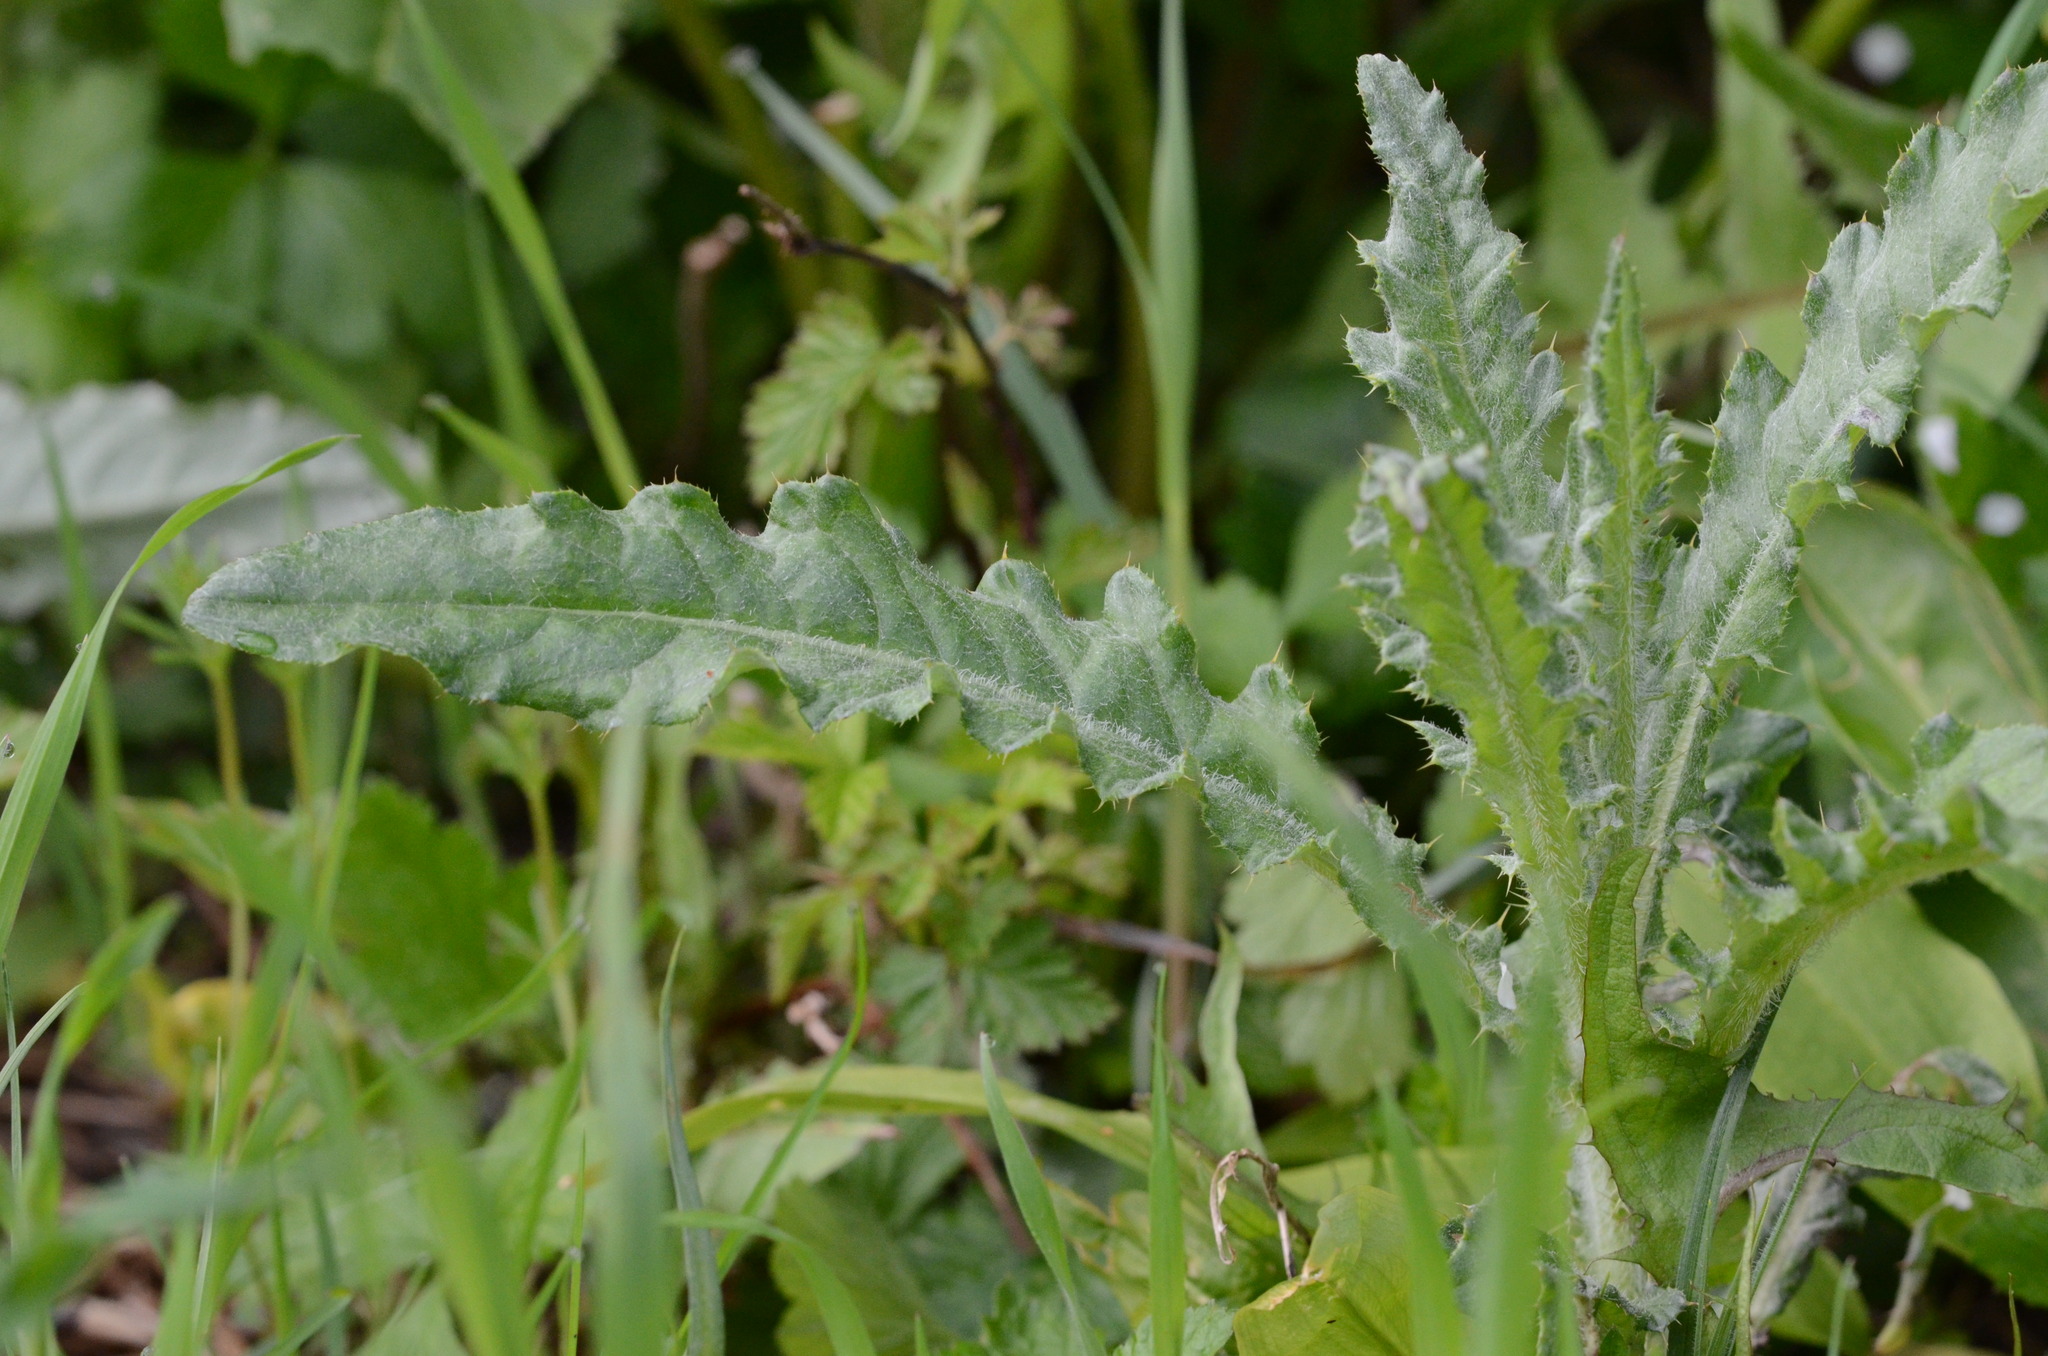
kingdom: Plantae
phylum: Tracheophyta
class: Magnoliopsida
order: Asterales
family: Asteraceae
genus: Cirsium
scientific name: Cirsium arvense
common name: Creeping thistle
